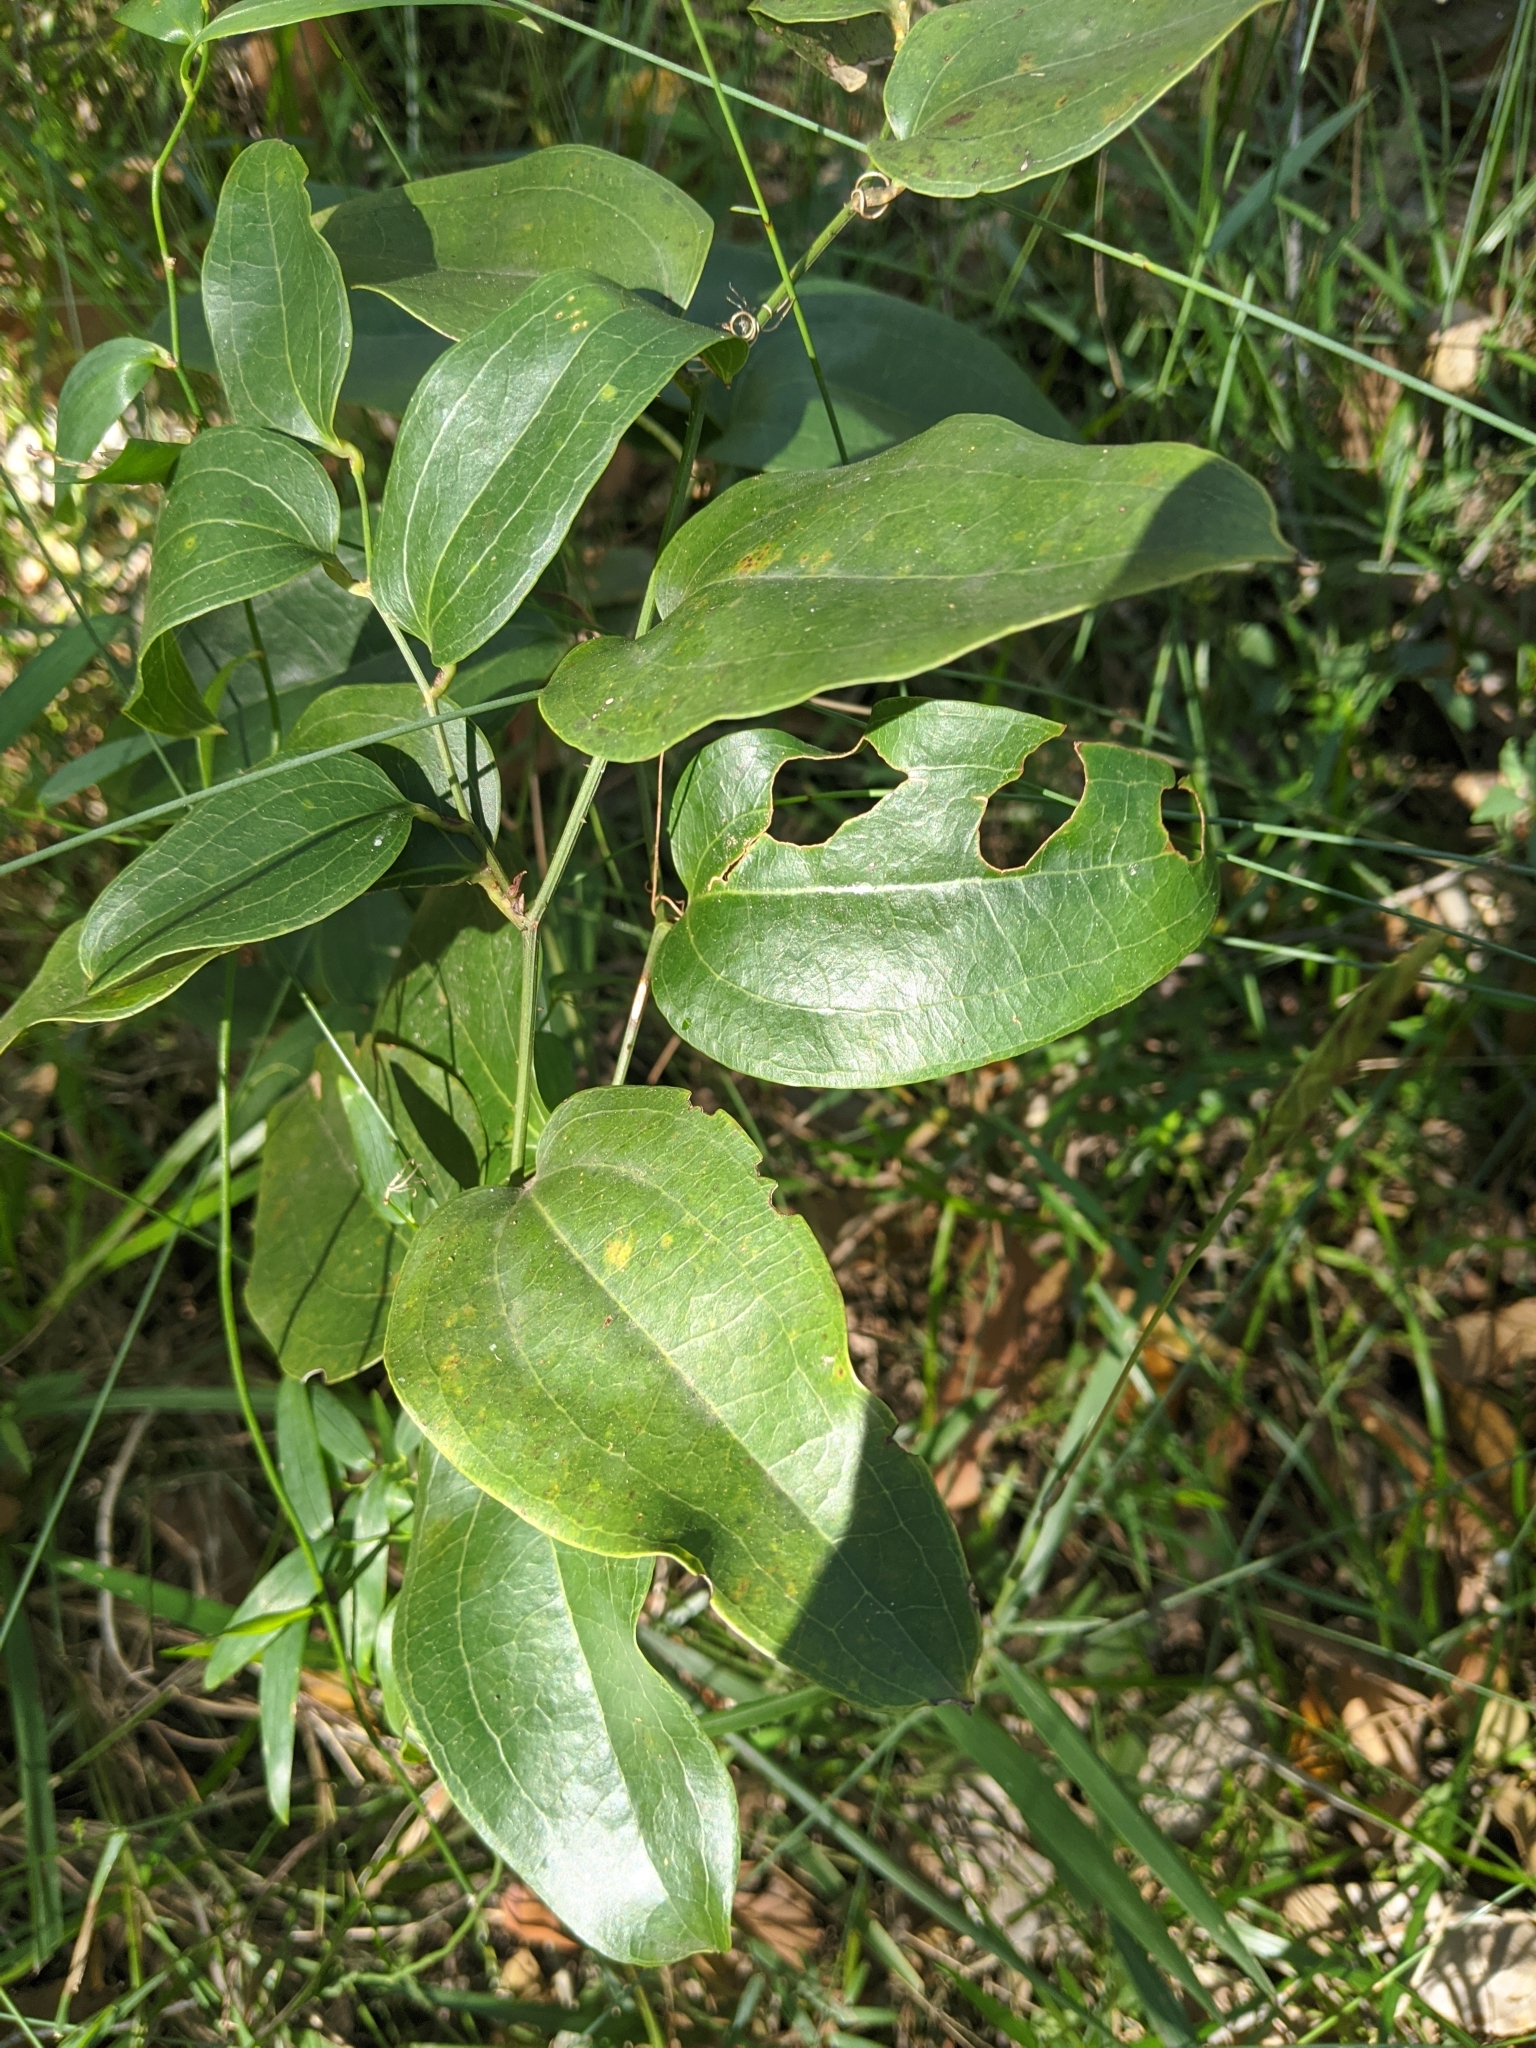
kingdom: Plantae
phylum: Tracheophyta
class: Liliopsida
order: Liliales
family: Smilacaceae
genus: Smilax
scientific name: Smilax australis
